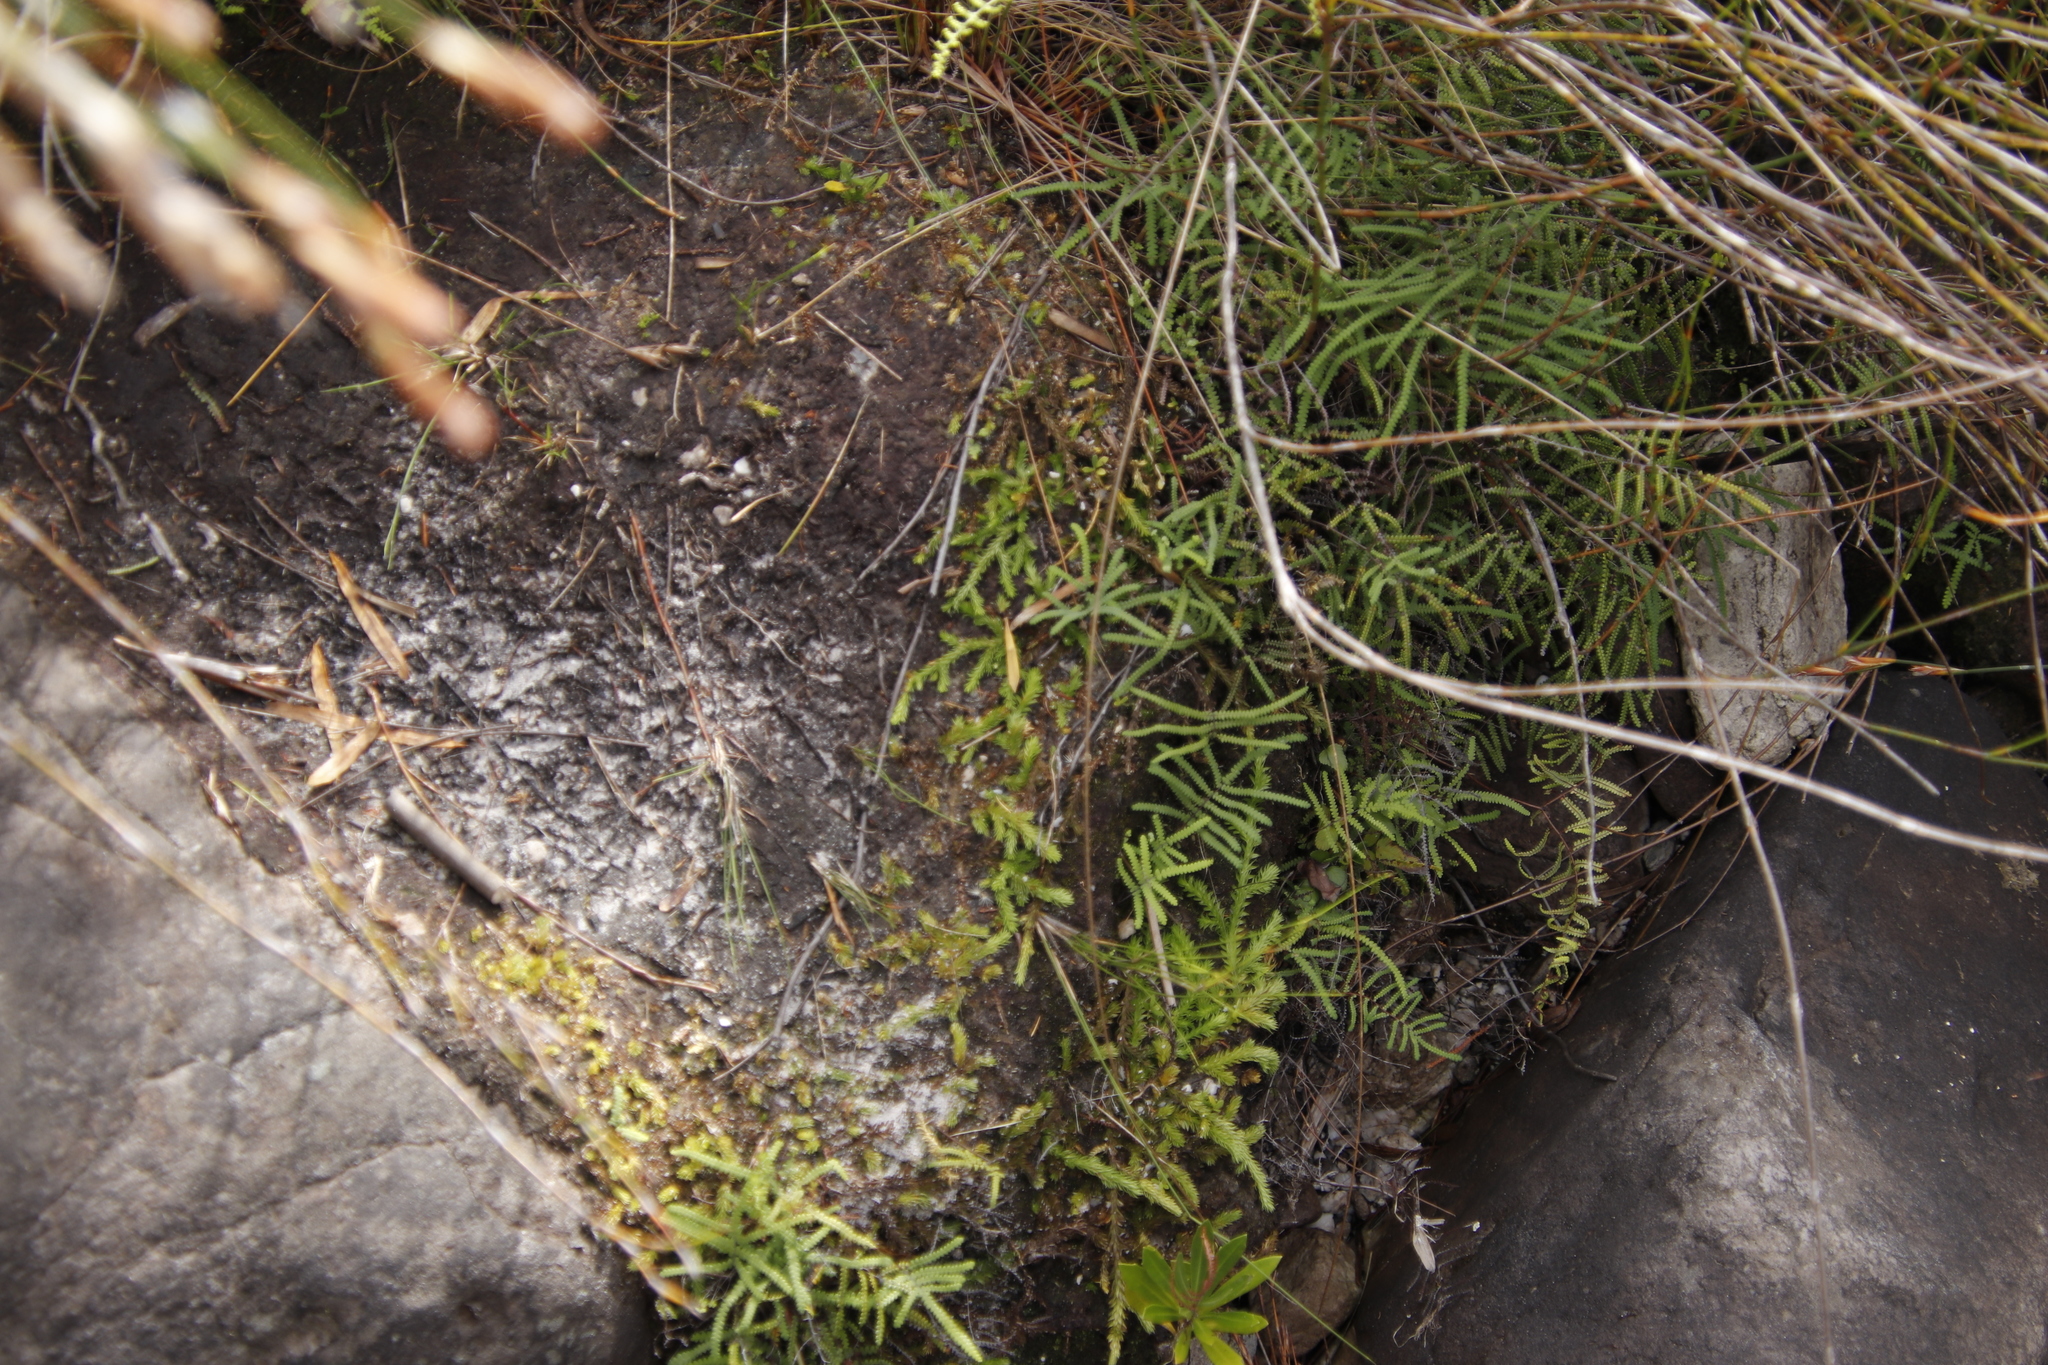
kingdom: Plantae
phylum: Tracheophyta
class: Lycopodiopsida
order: Lycopodiales
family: Lycopodiaceae
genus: Pseudolycopodiella
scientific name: Pseudolycopodiella caroliniana
